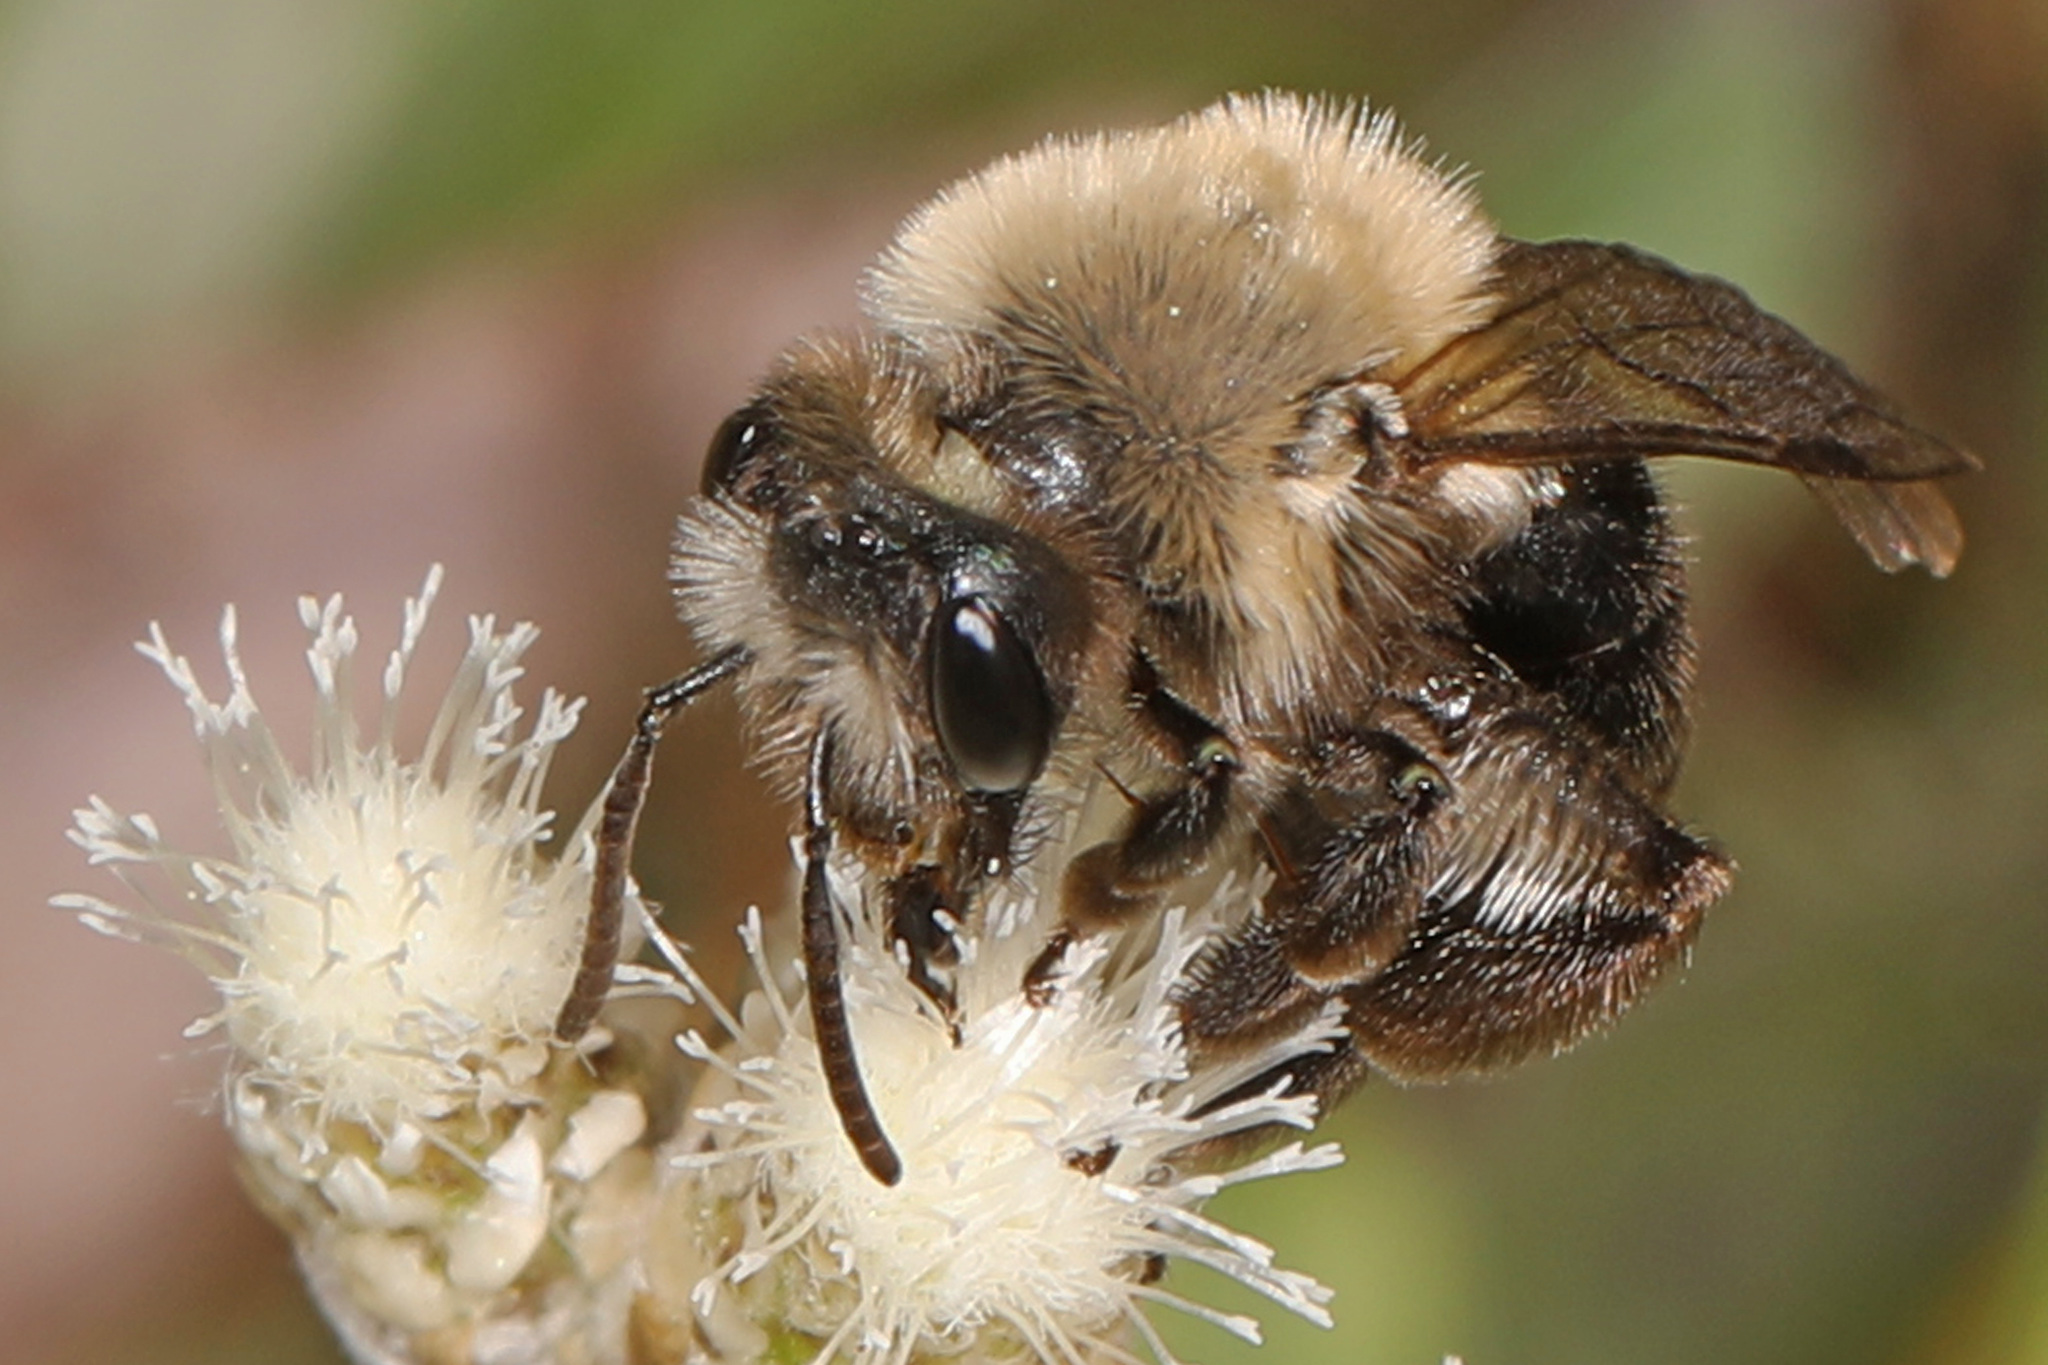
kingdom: Animalia
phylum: Arthropoda
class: Insecta
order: Hymenoptera
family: Andrenidae
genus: Andrena
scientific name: Andrena carlini
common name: Carlin's mining bee
